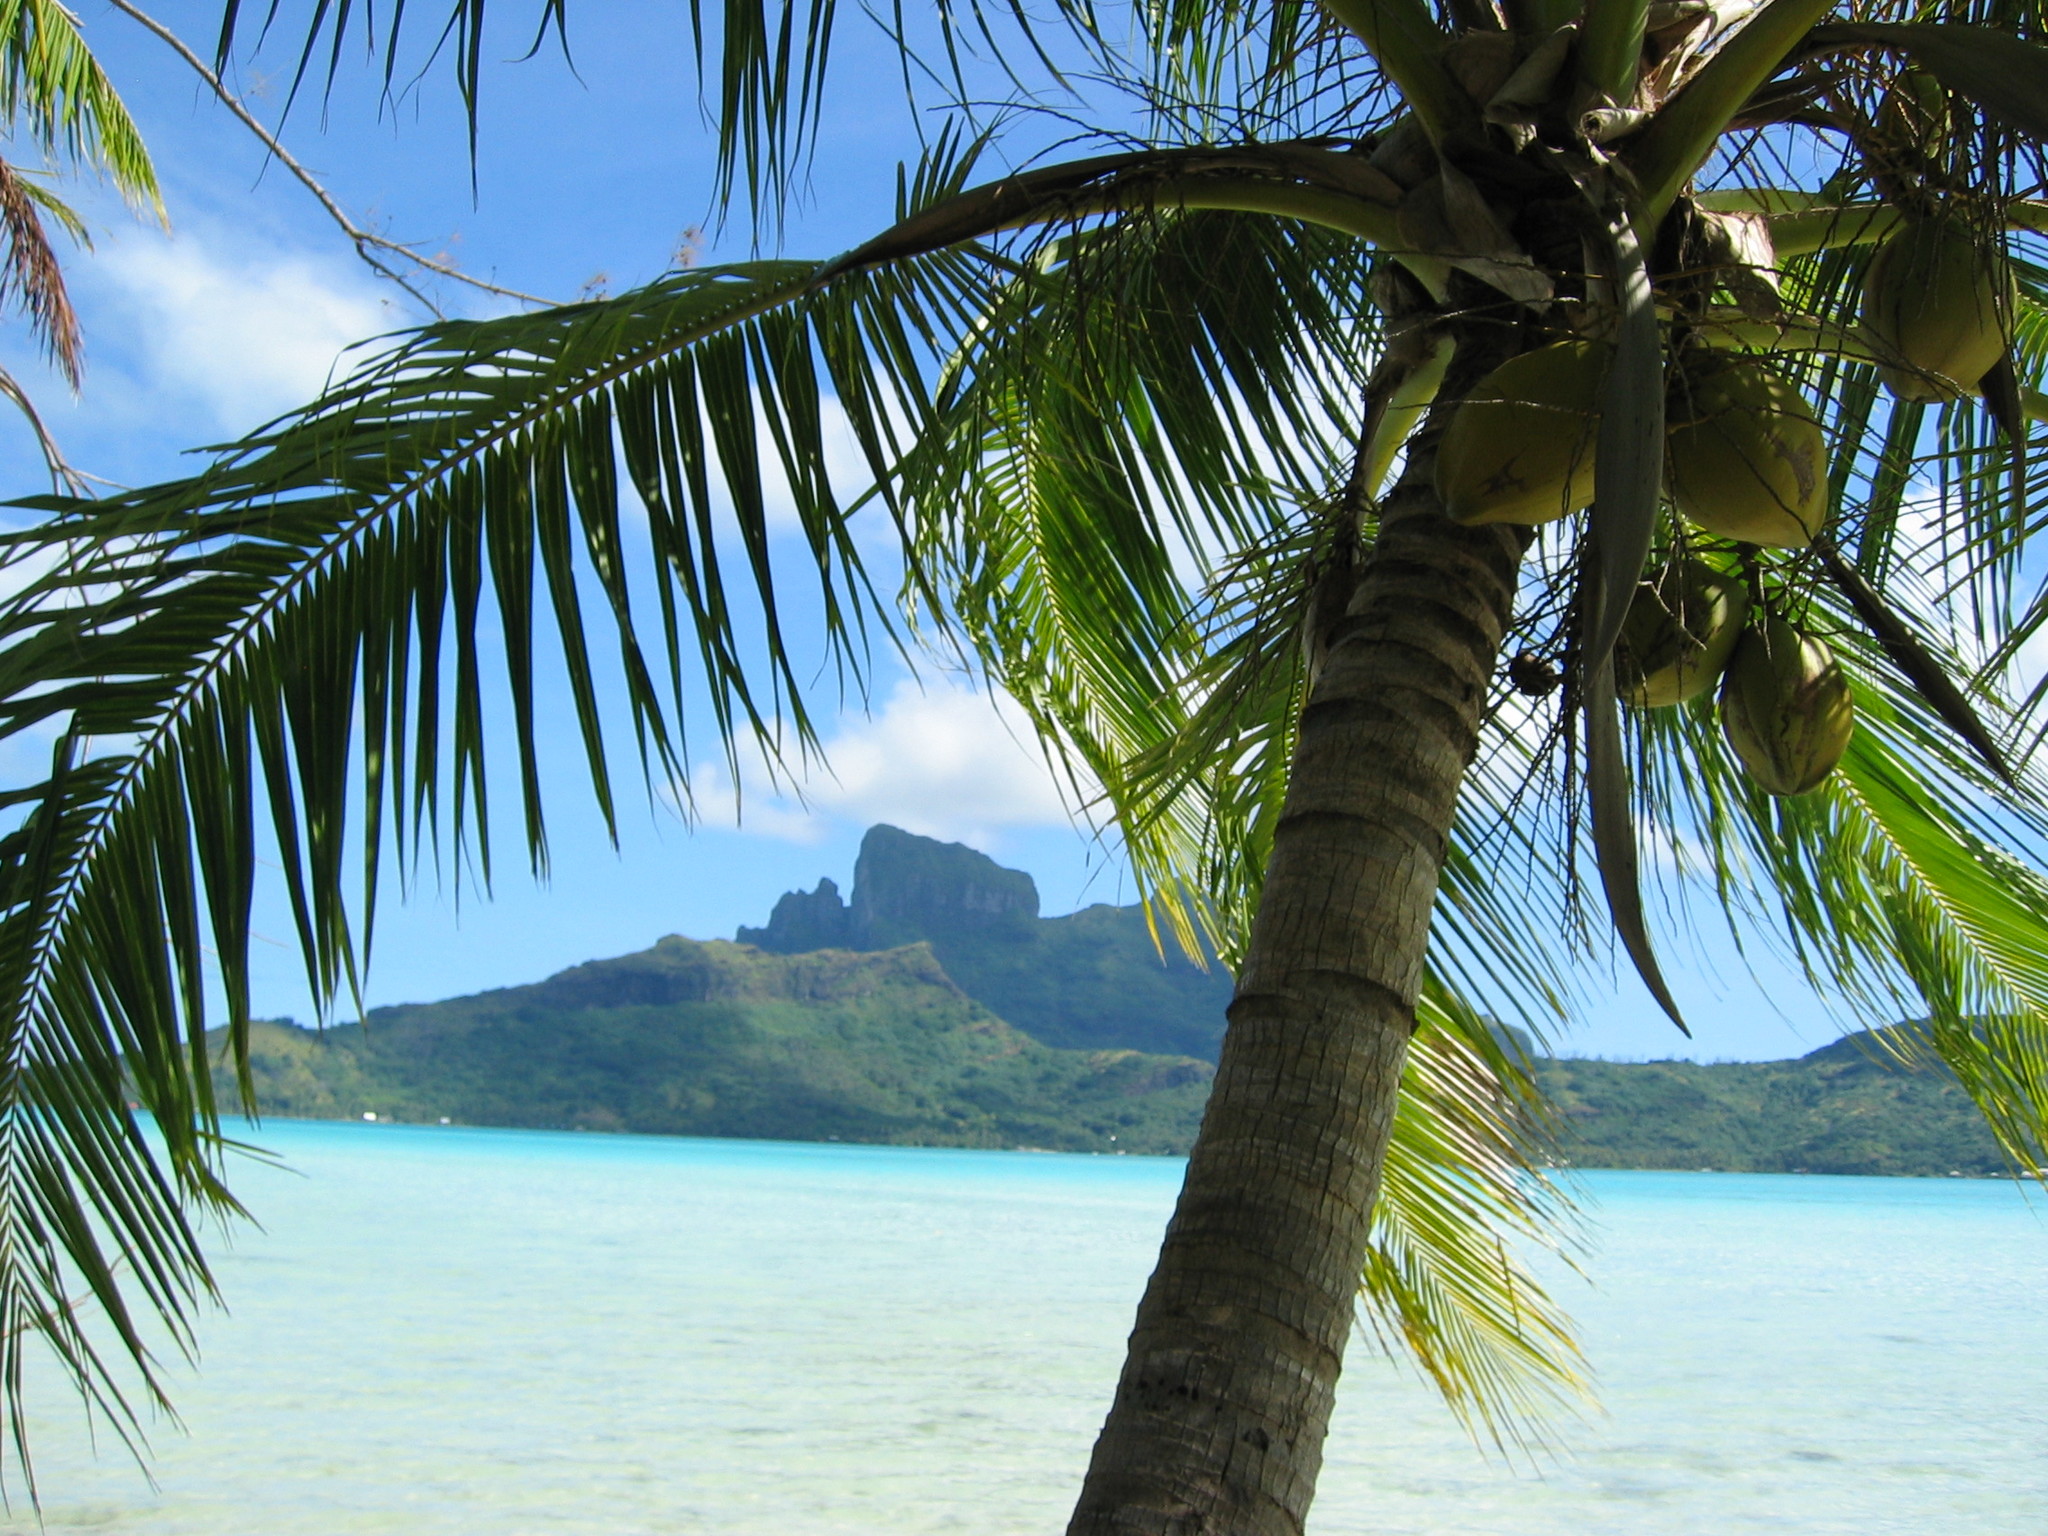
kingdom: Plantae
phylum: Tracheophyta
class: Liliopsida
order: Arecales
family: Arecaceae
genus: Cocos
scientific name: Cocos nucifera
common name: Coconut palm
